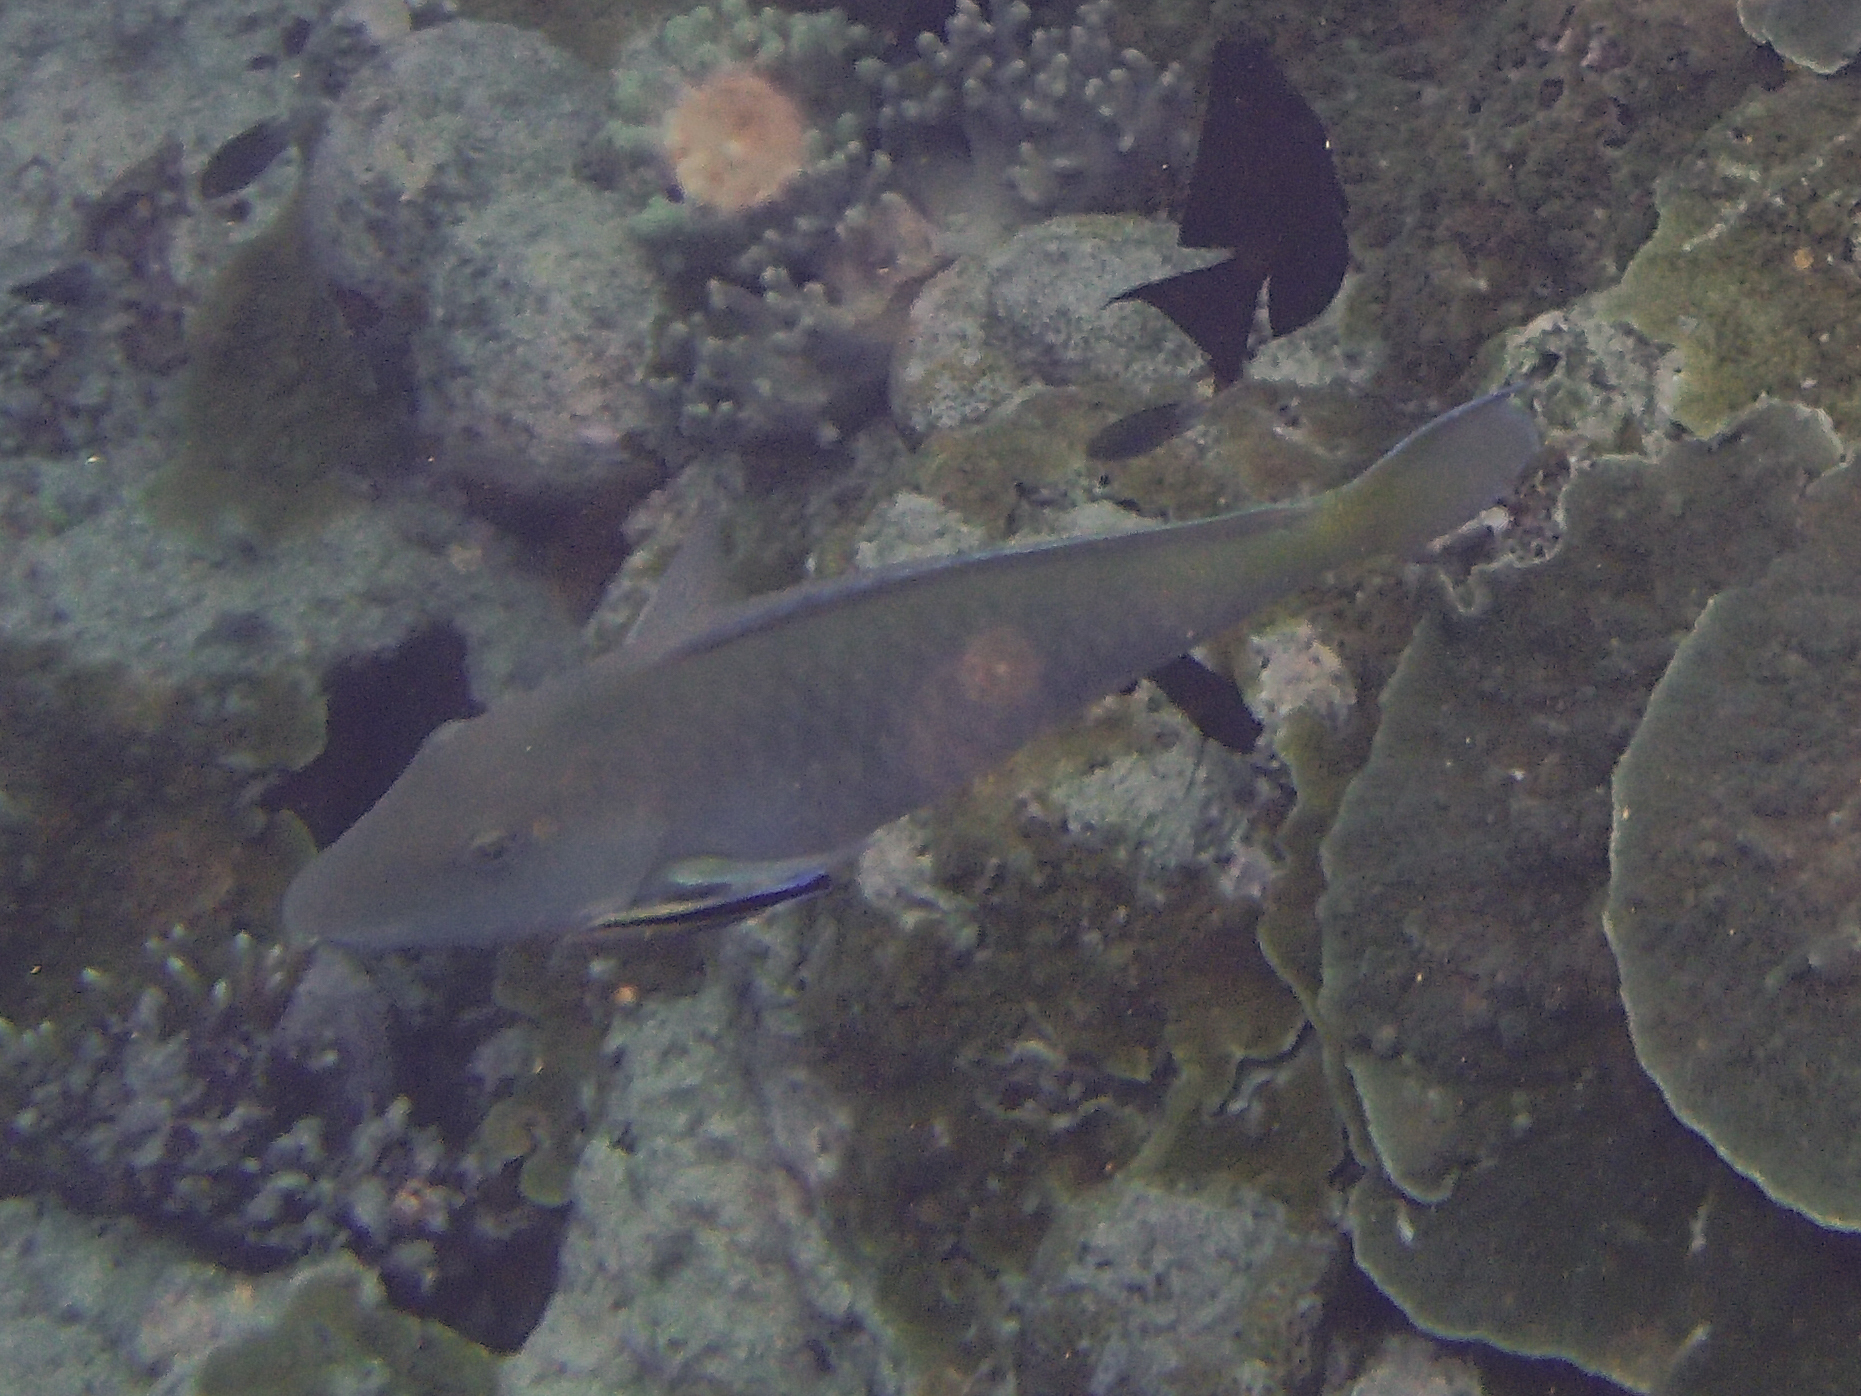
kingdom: Animalia
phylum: Chordata
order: Perciformes
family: Scaridae
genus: Hipposcarus
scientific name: Hipposcarus longiceps
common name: Pacific longnose parrotfish
